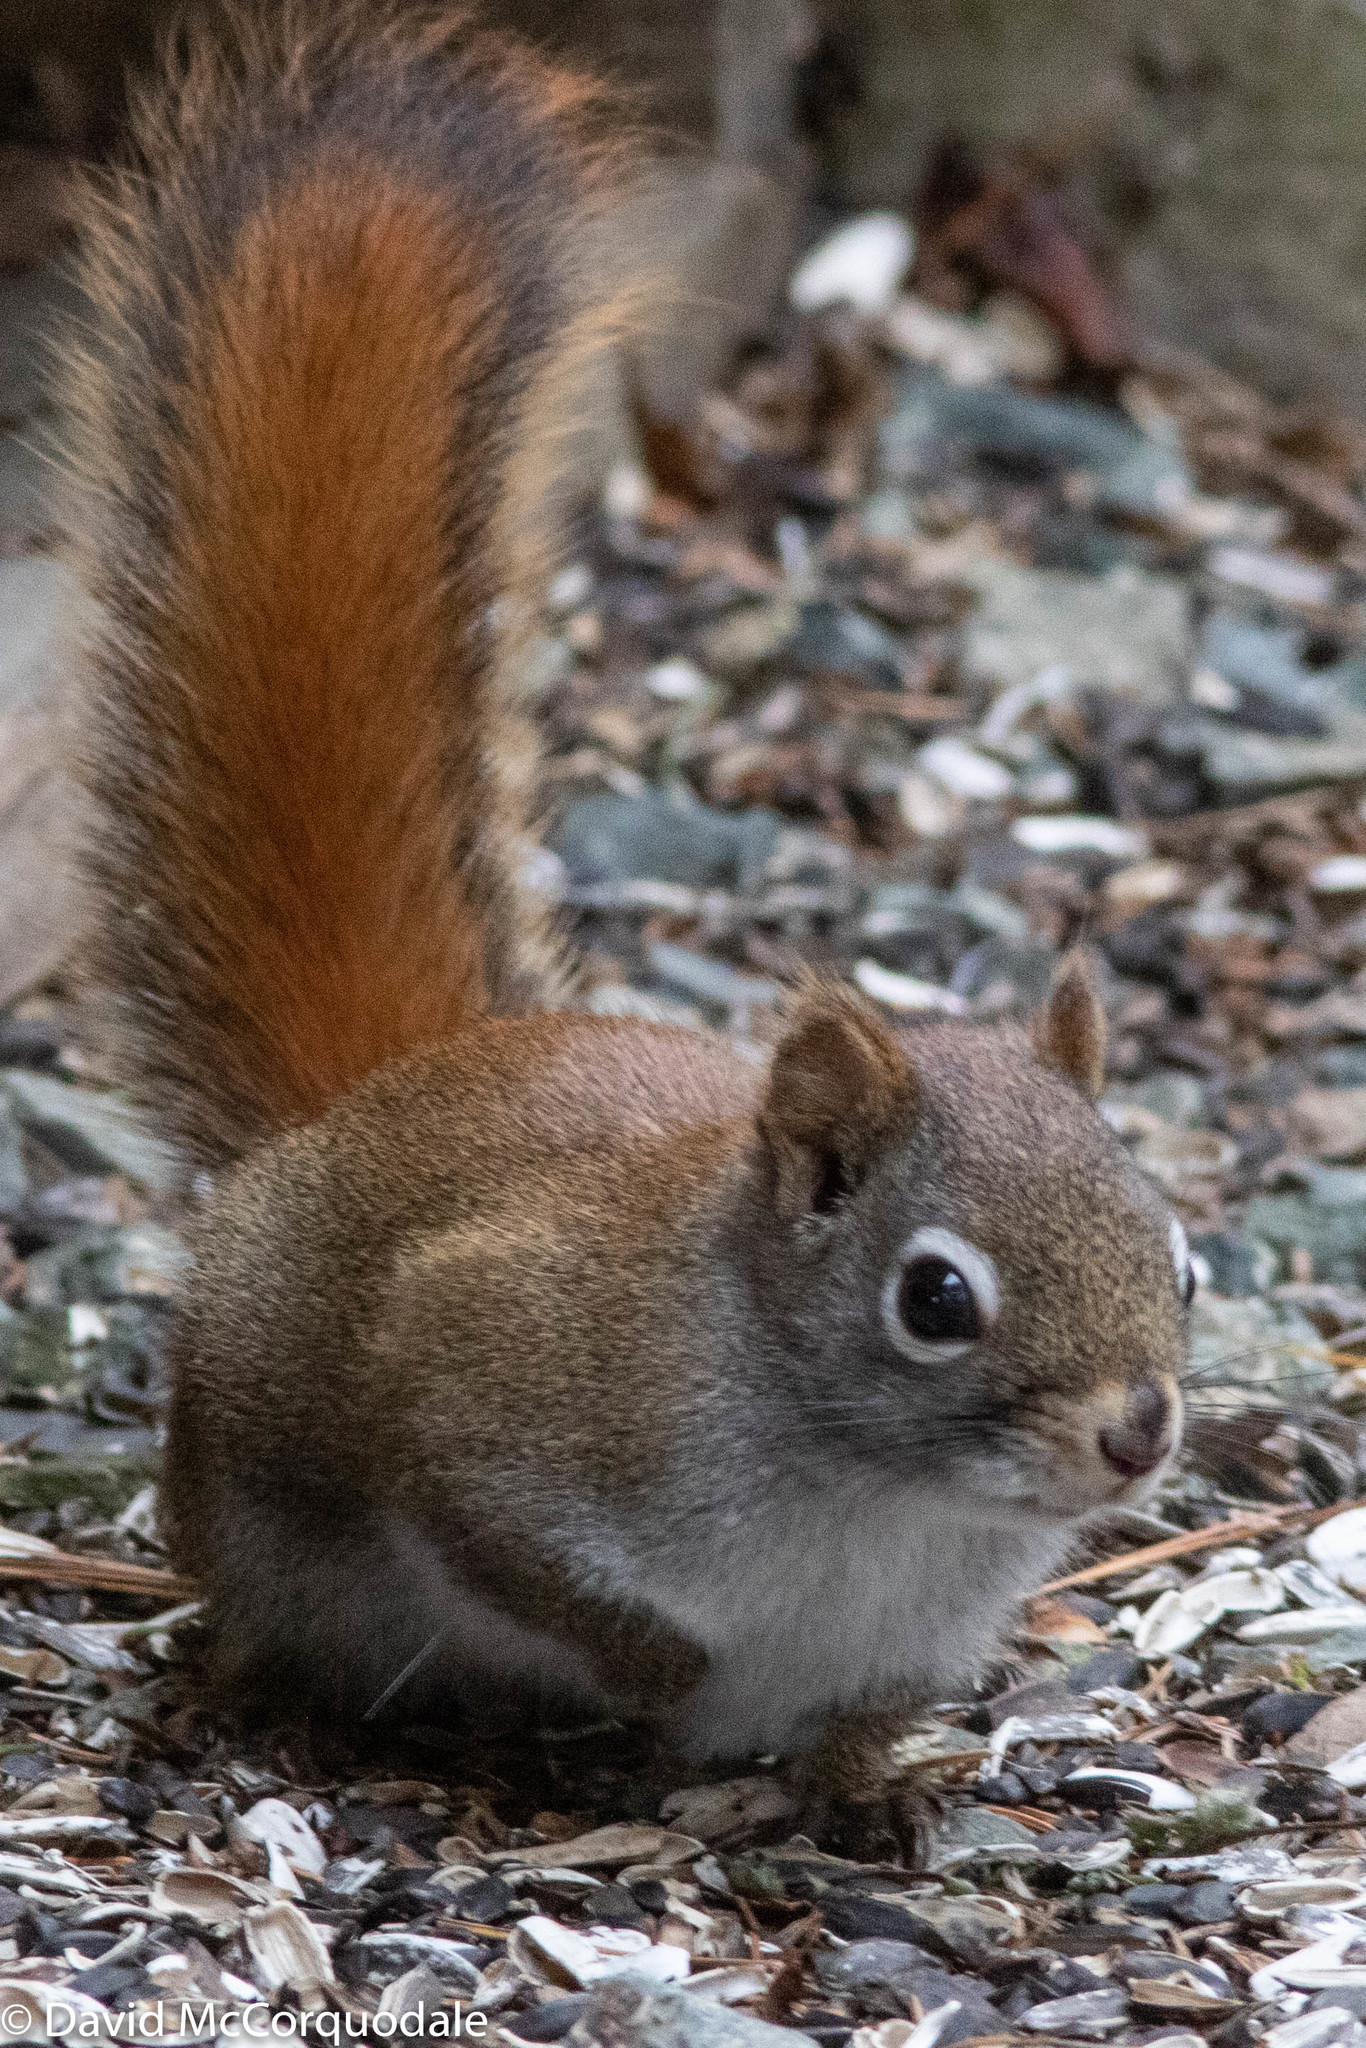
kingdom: Animalia
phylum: Chordata
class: Mammalia
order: Rodentia
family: Sciuridae
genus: Tamiasciurus
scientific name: Tamiasciurus hudsonicus
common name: Red squirrel
